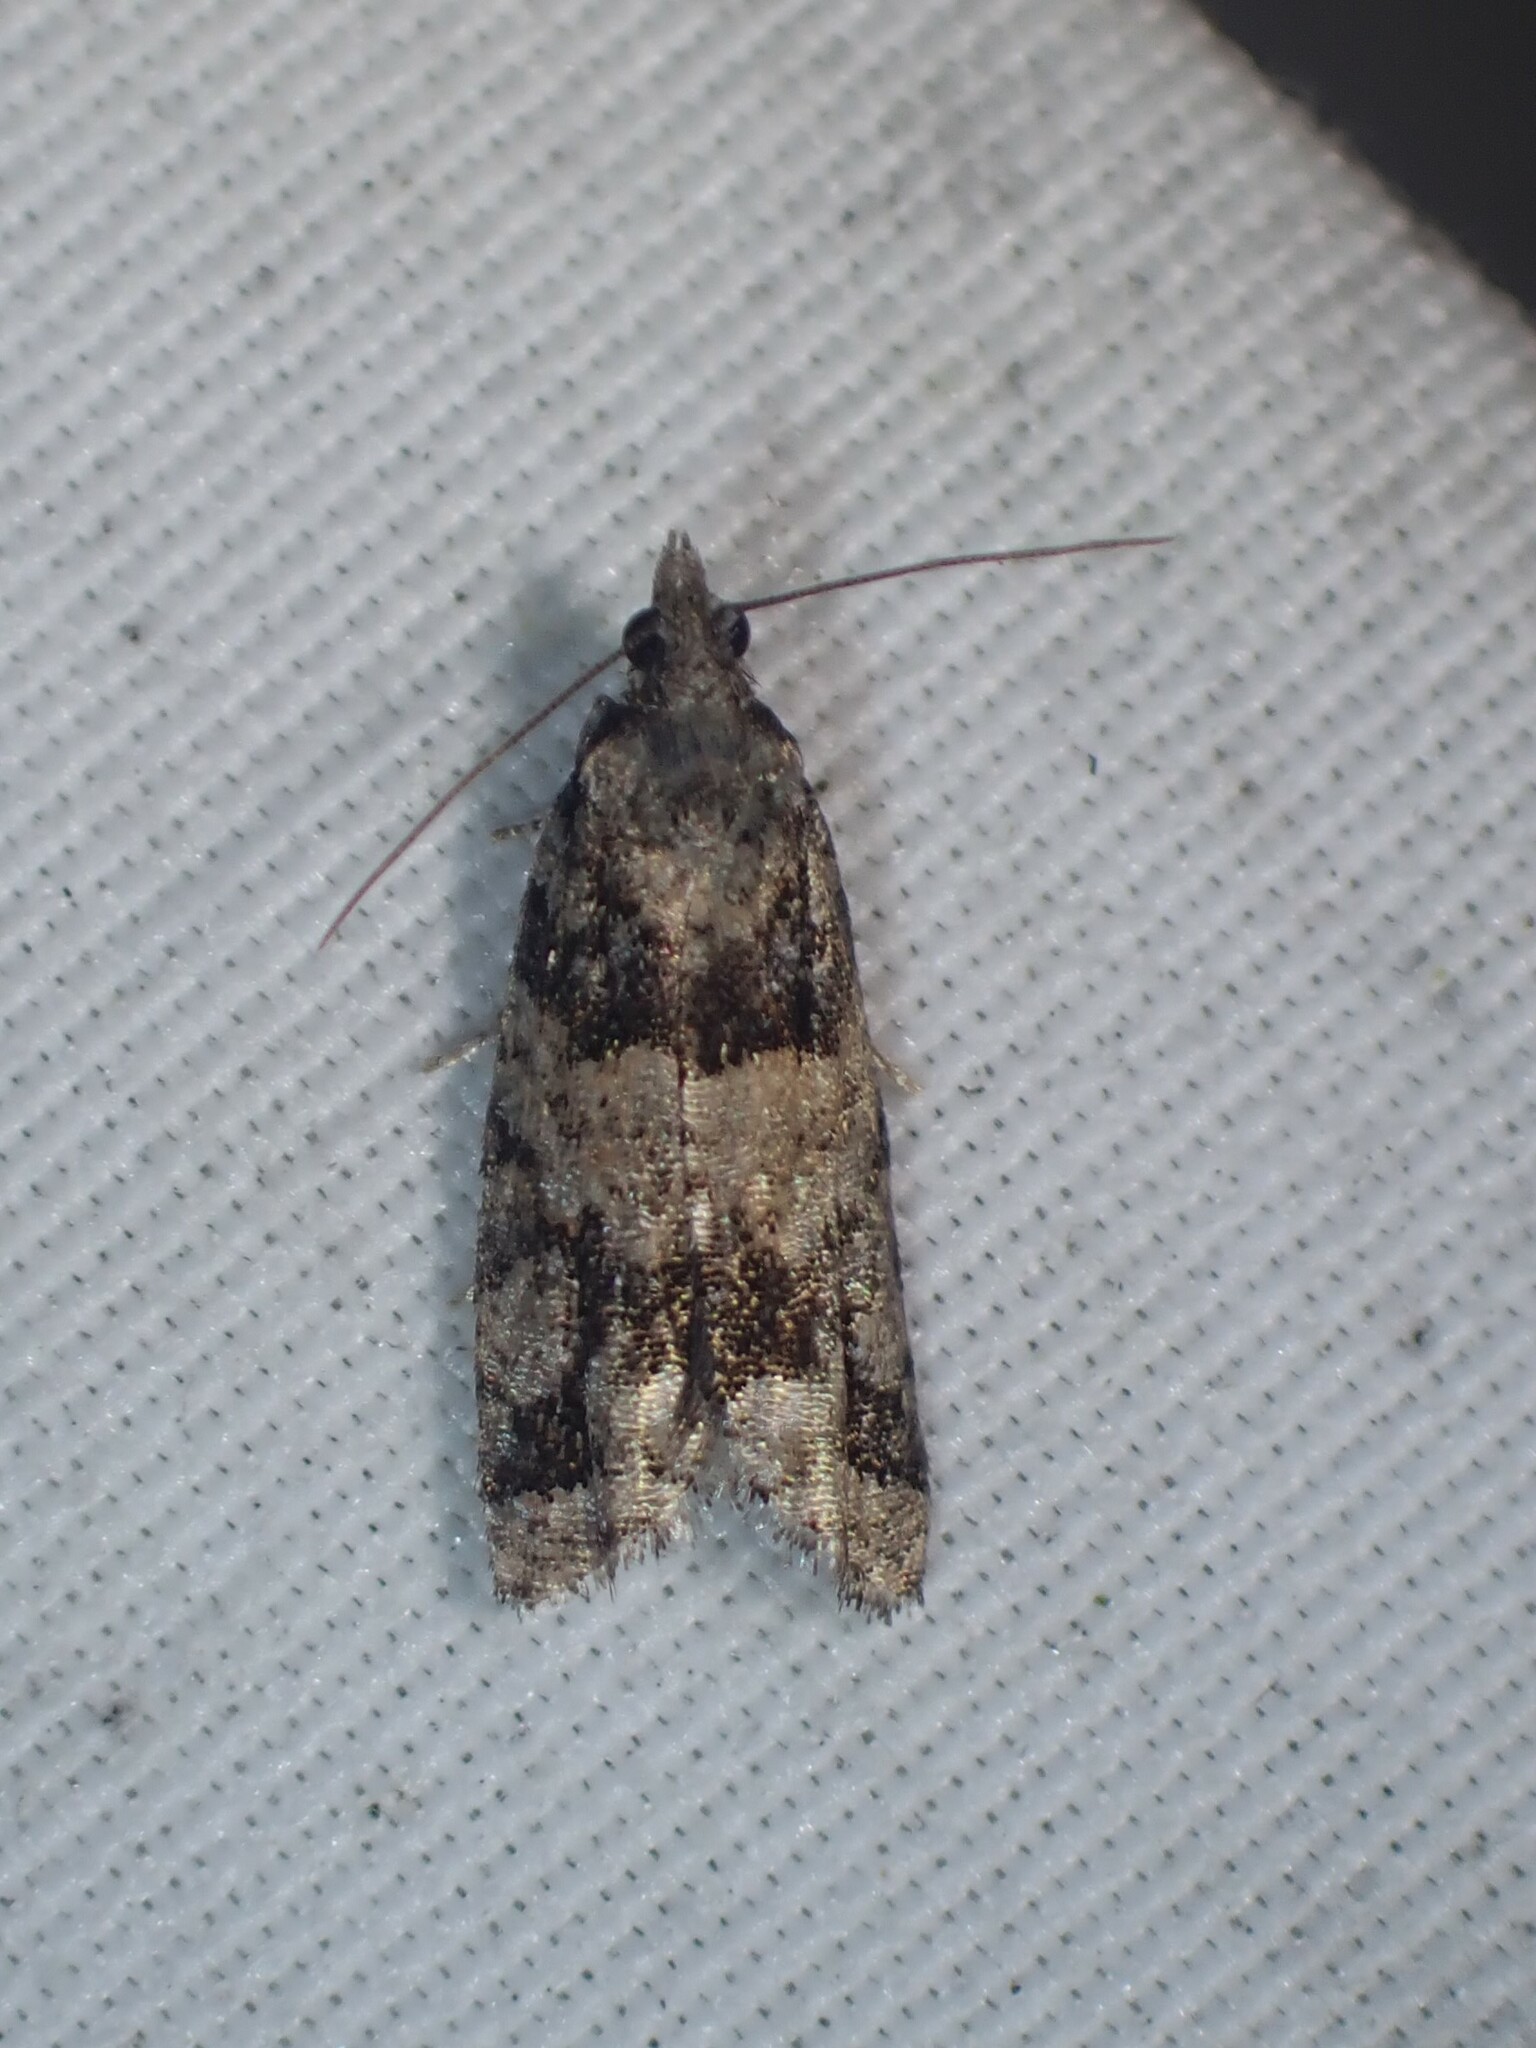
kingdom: Animalia
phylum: Arthropoda
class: Insecta
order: Lepidoptera
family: Tortricidae
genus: Epinotia
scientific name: Epinotia radicana
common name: Red-striped needleworm moth
